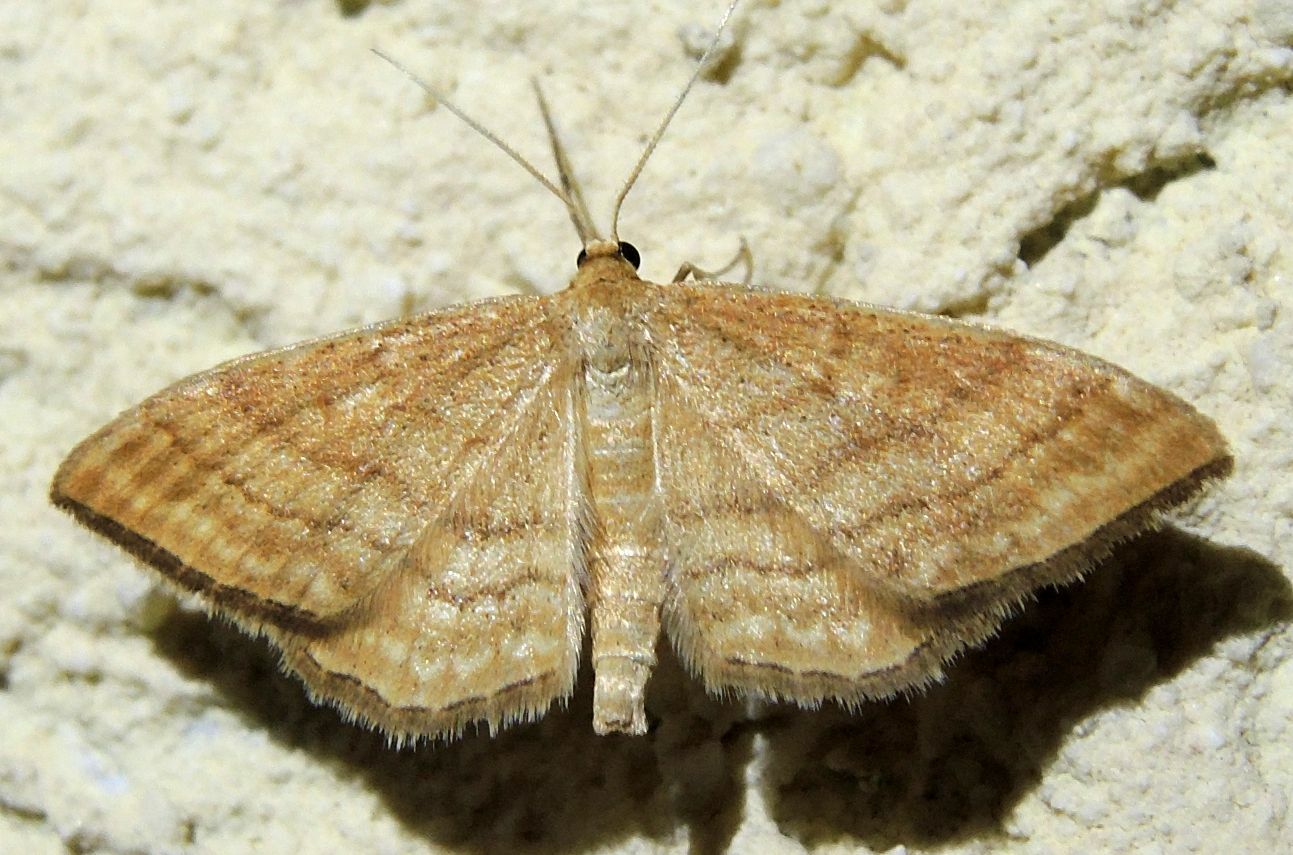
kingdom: Animalia
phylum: Arthropoda
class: Insecta
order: Lepidoptera
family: Geometridae
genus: Idaea
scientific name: Idaea ochrata
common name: Bright wave
